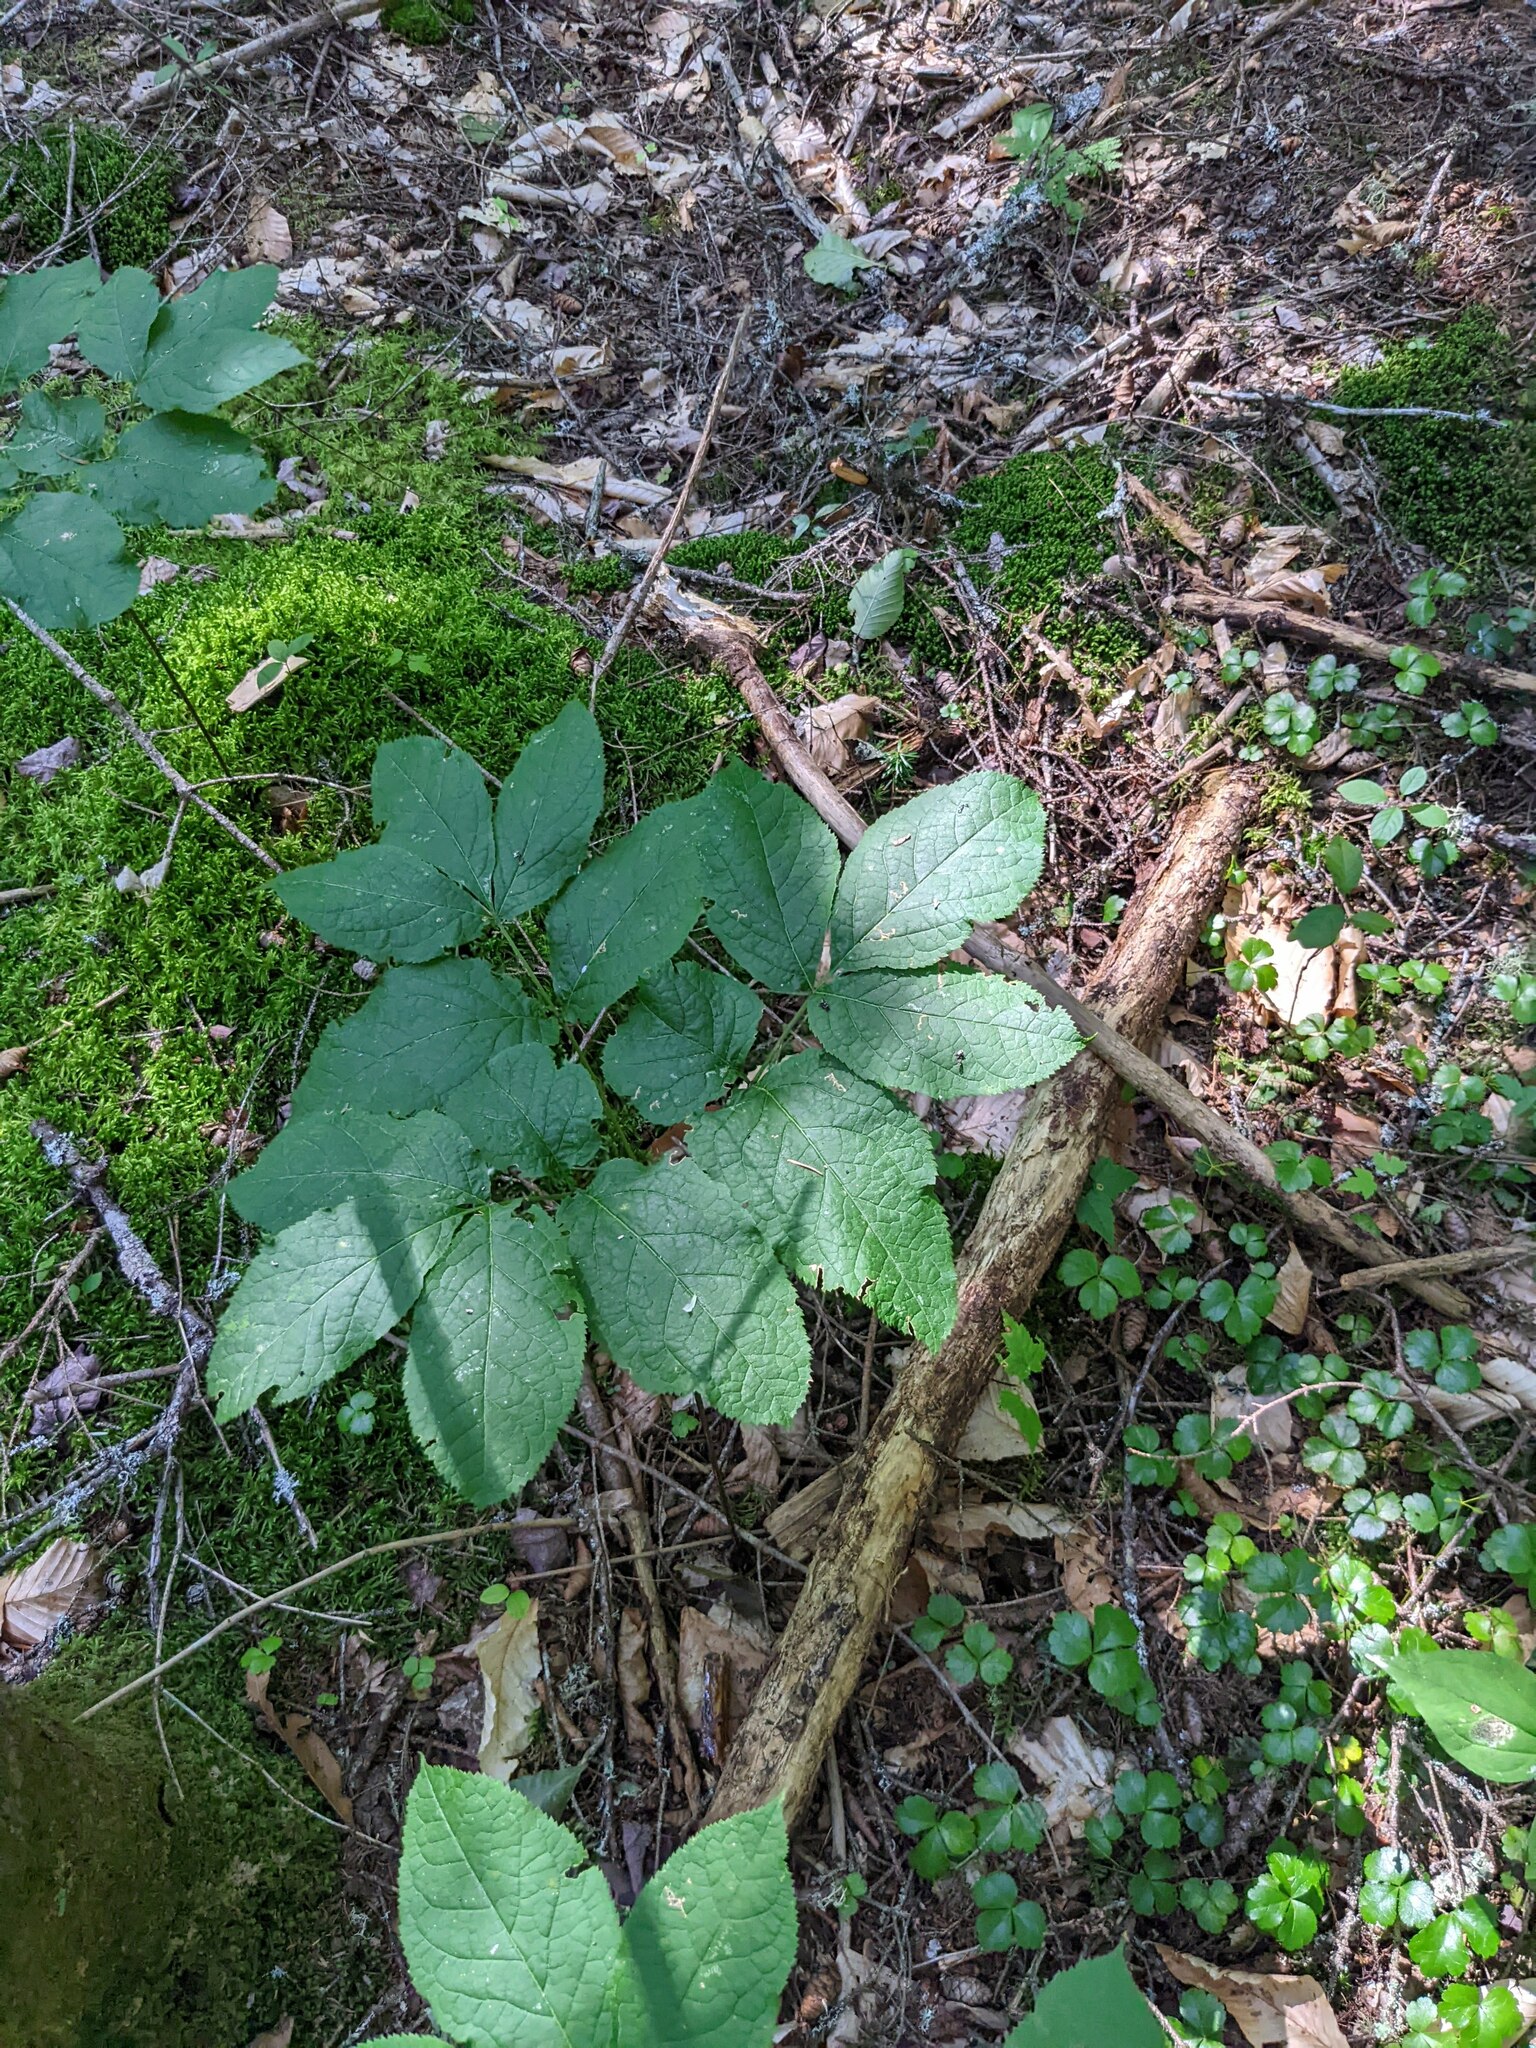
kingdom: Plantae
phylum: Tracheophyta
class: Magnoliopsida
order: Apiales
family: Araliaceae
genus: Aralia
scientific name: Aralia nudicaulis
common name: Wild sarsaparilla
